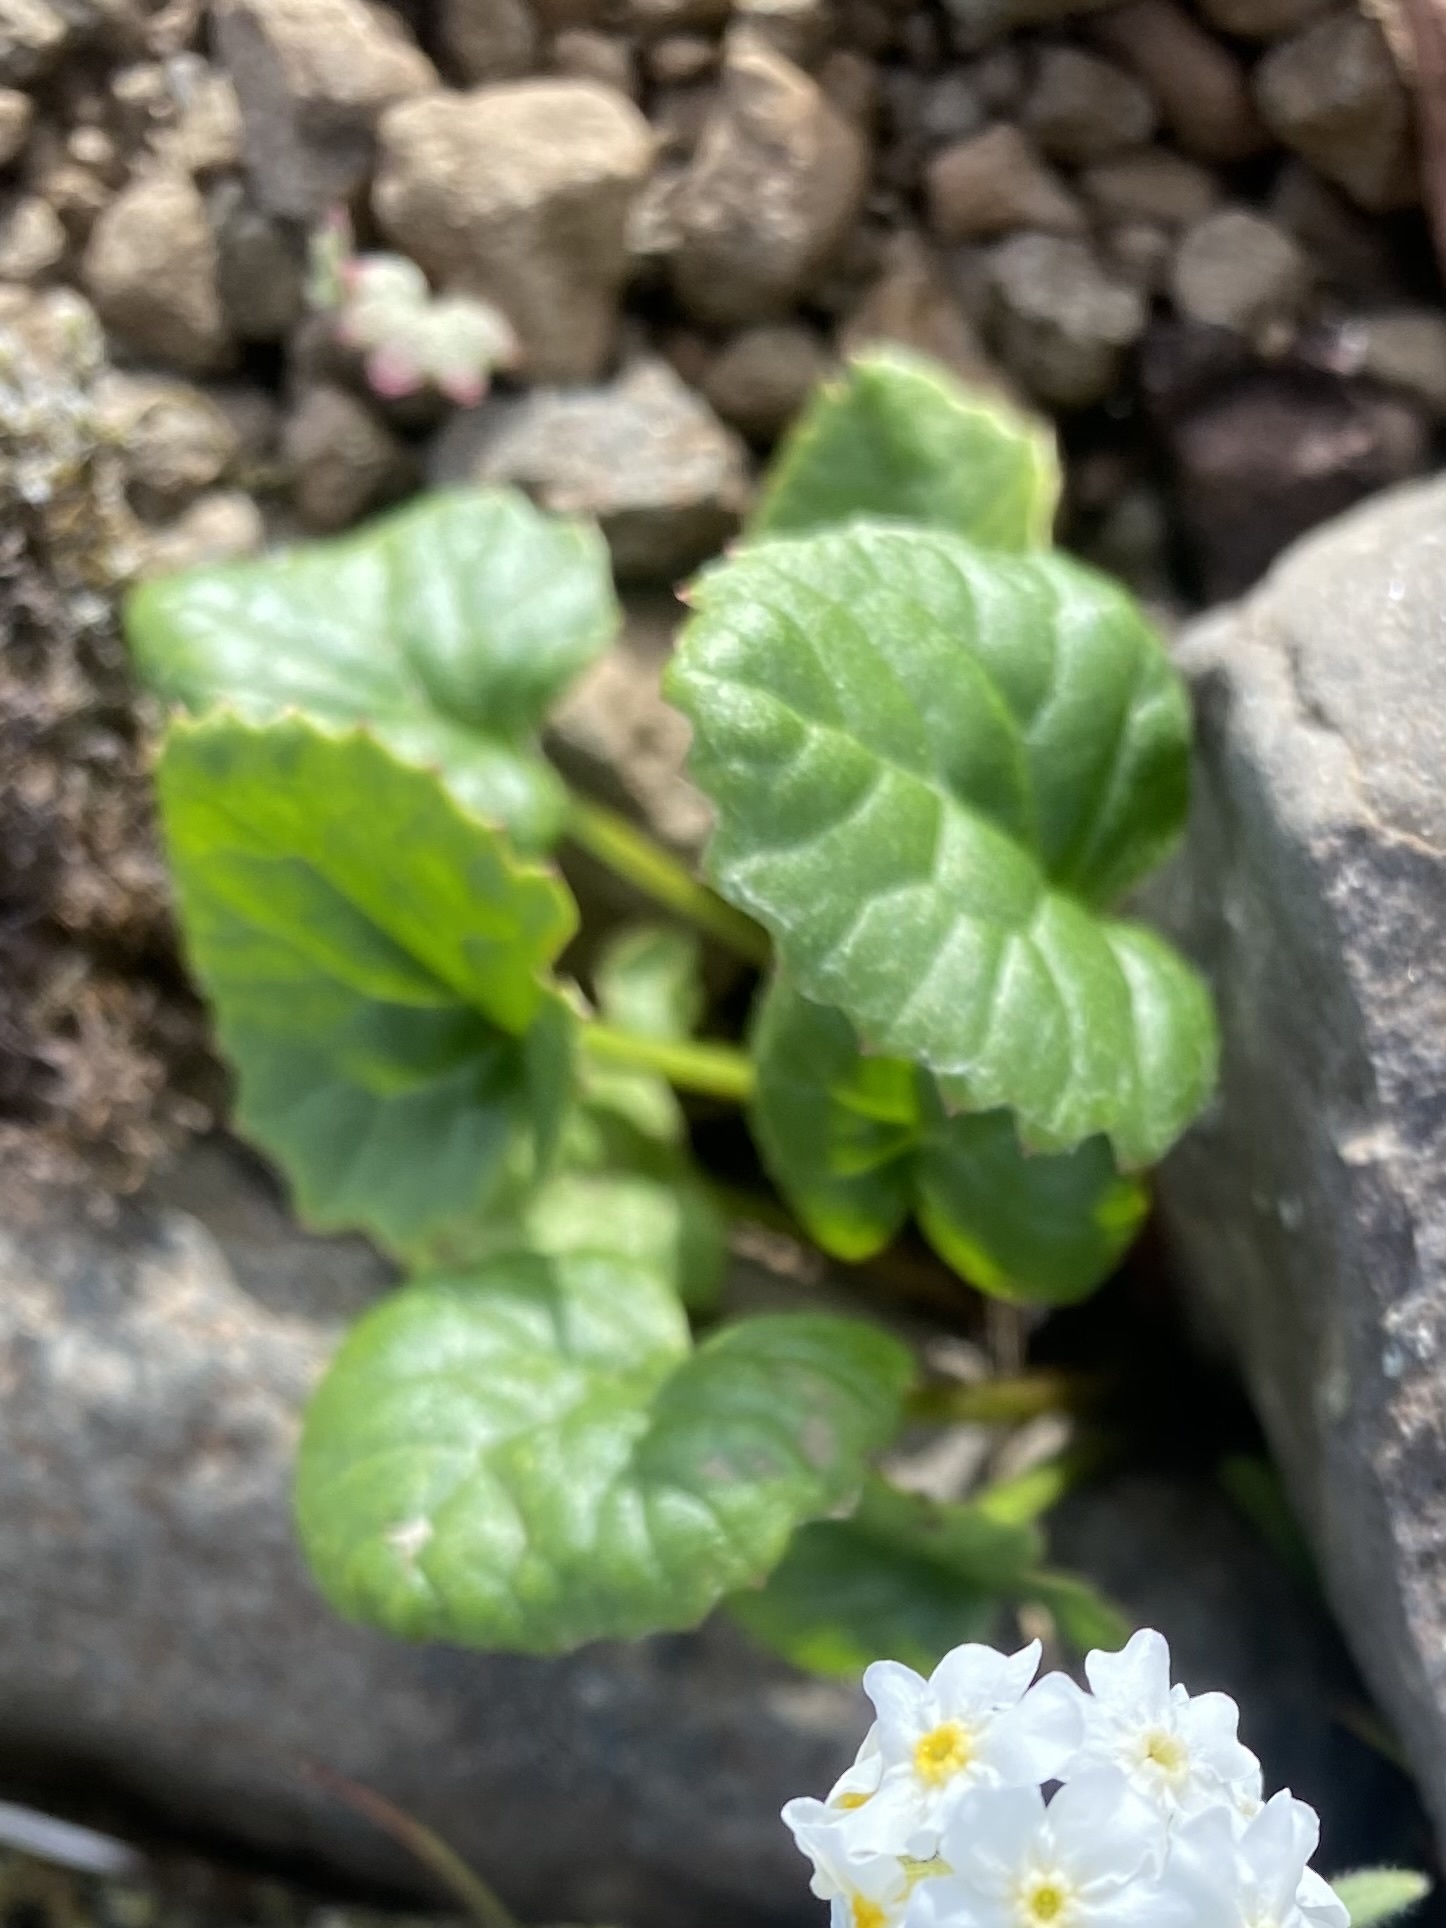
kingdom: Plantae
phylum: Tracheophyta
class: Magnoliopsida
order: Asterales
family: Asteraceae
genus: Endocellion
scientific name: Endocellion glaciale
